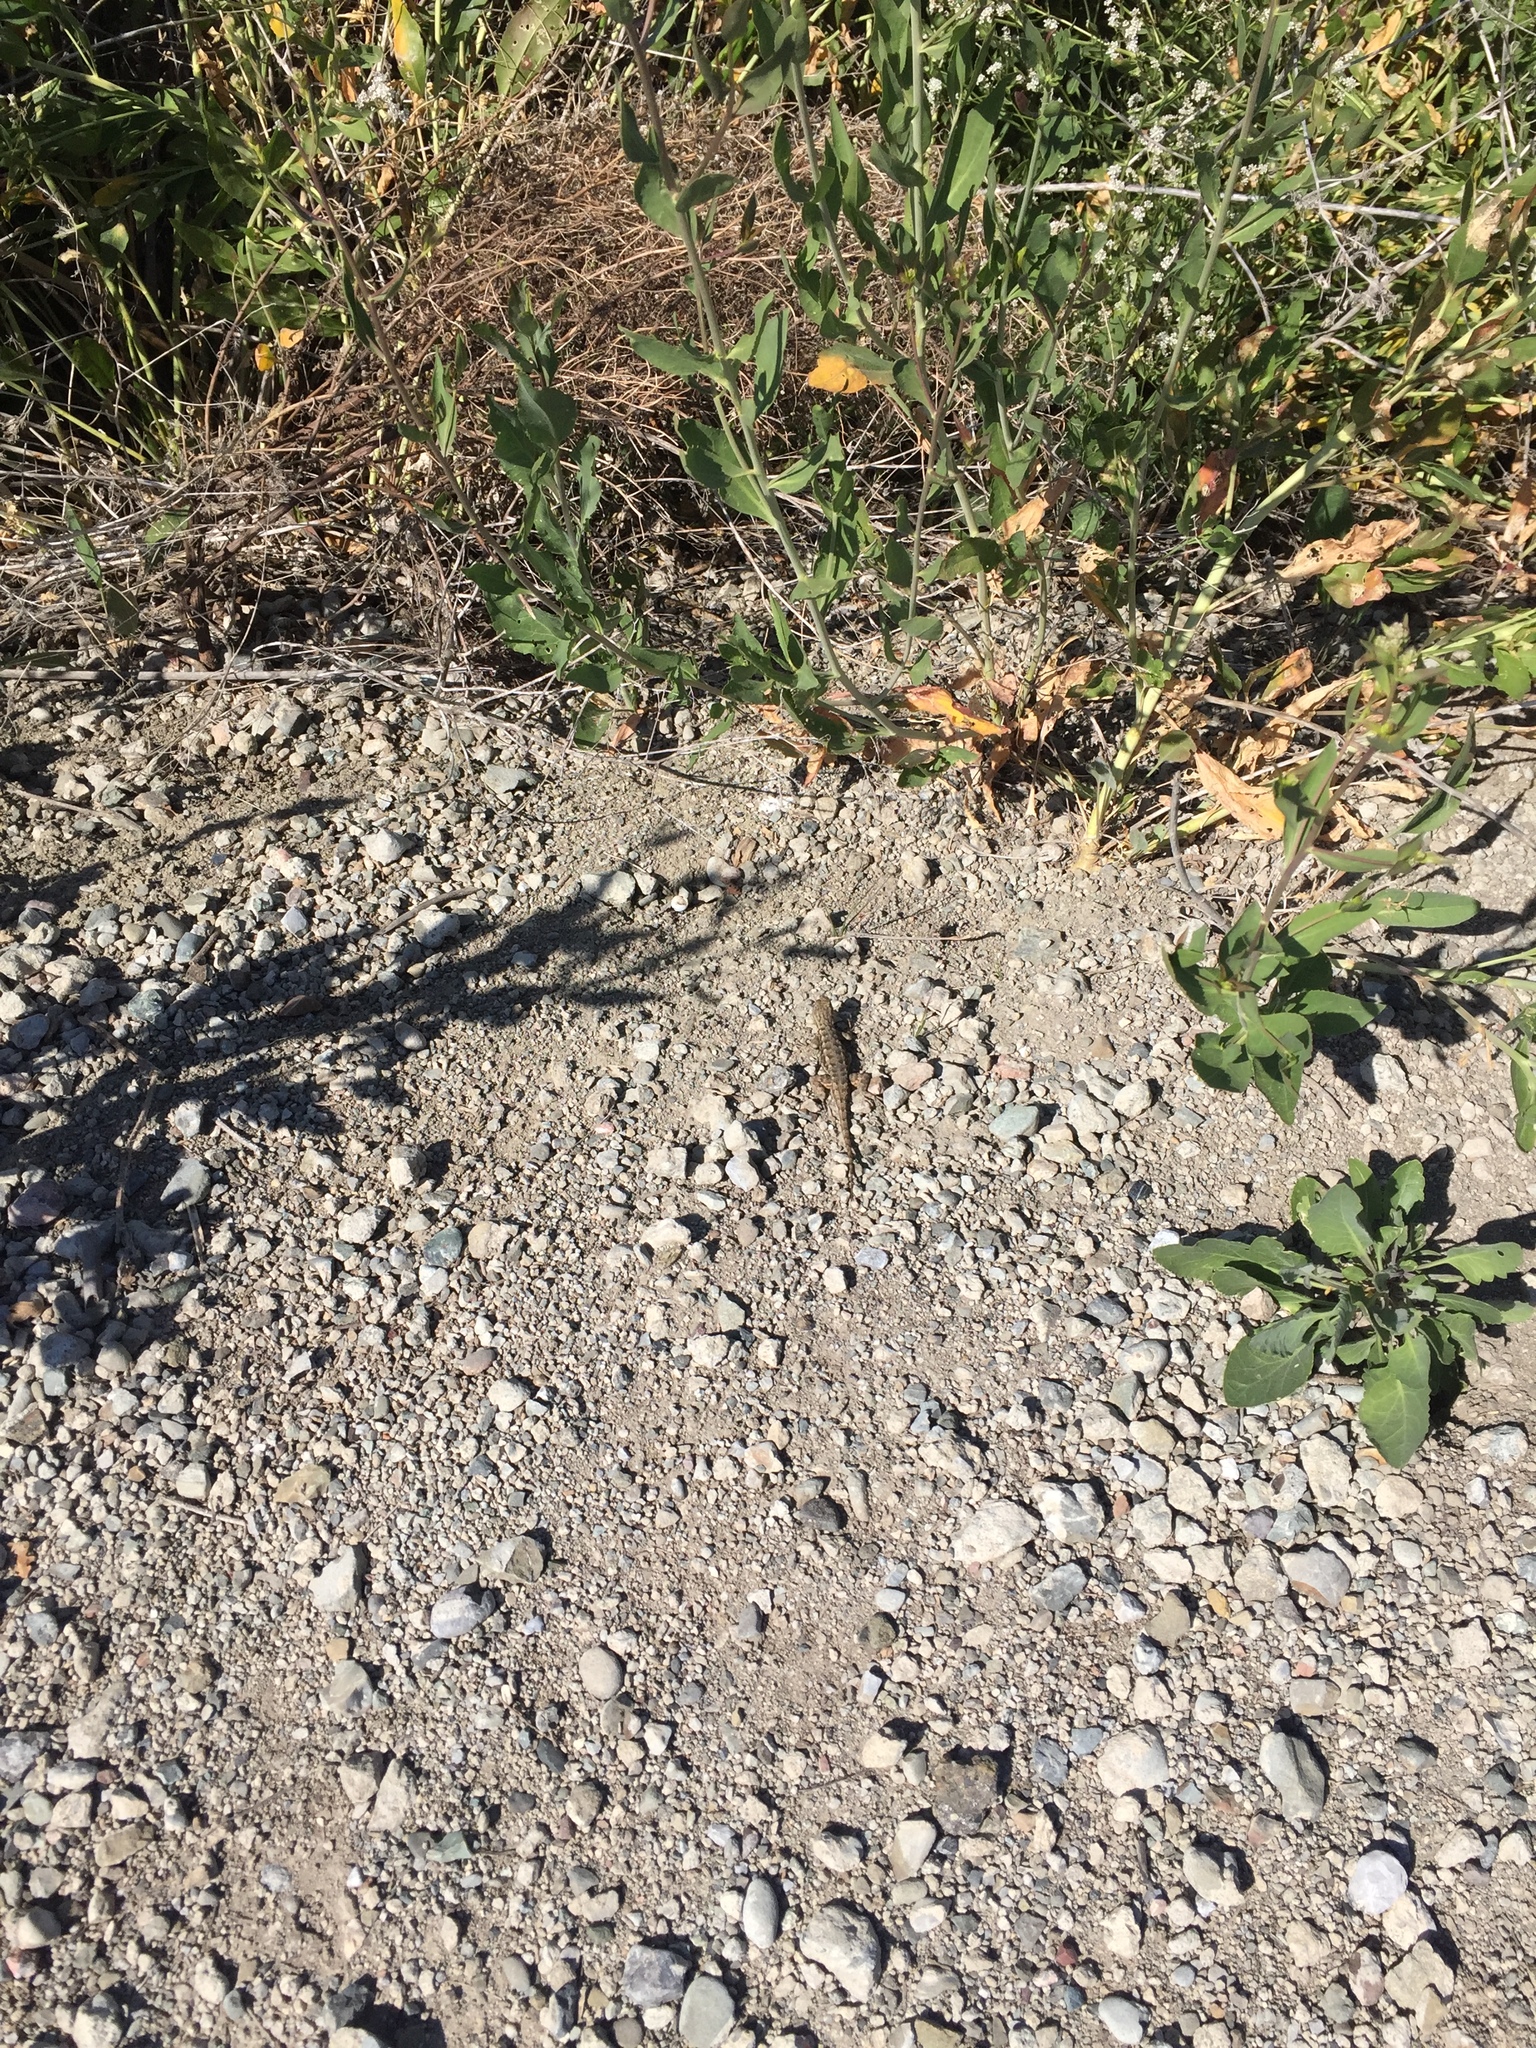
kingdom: Animalia
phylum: Chordata
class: Squamata
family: Phrynosomatidae
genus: Sceloporus
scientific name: Sceloporus occidentalis
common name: Western fence lizard
